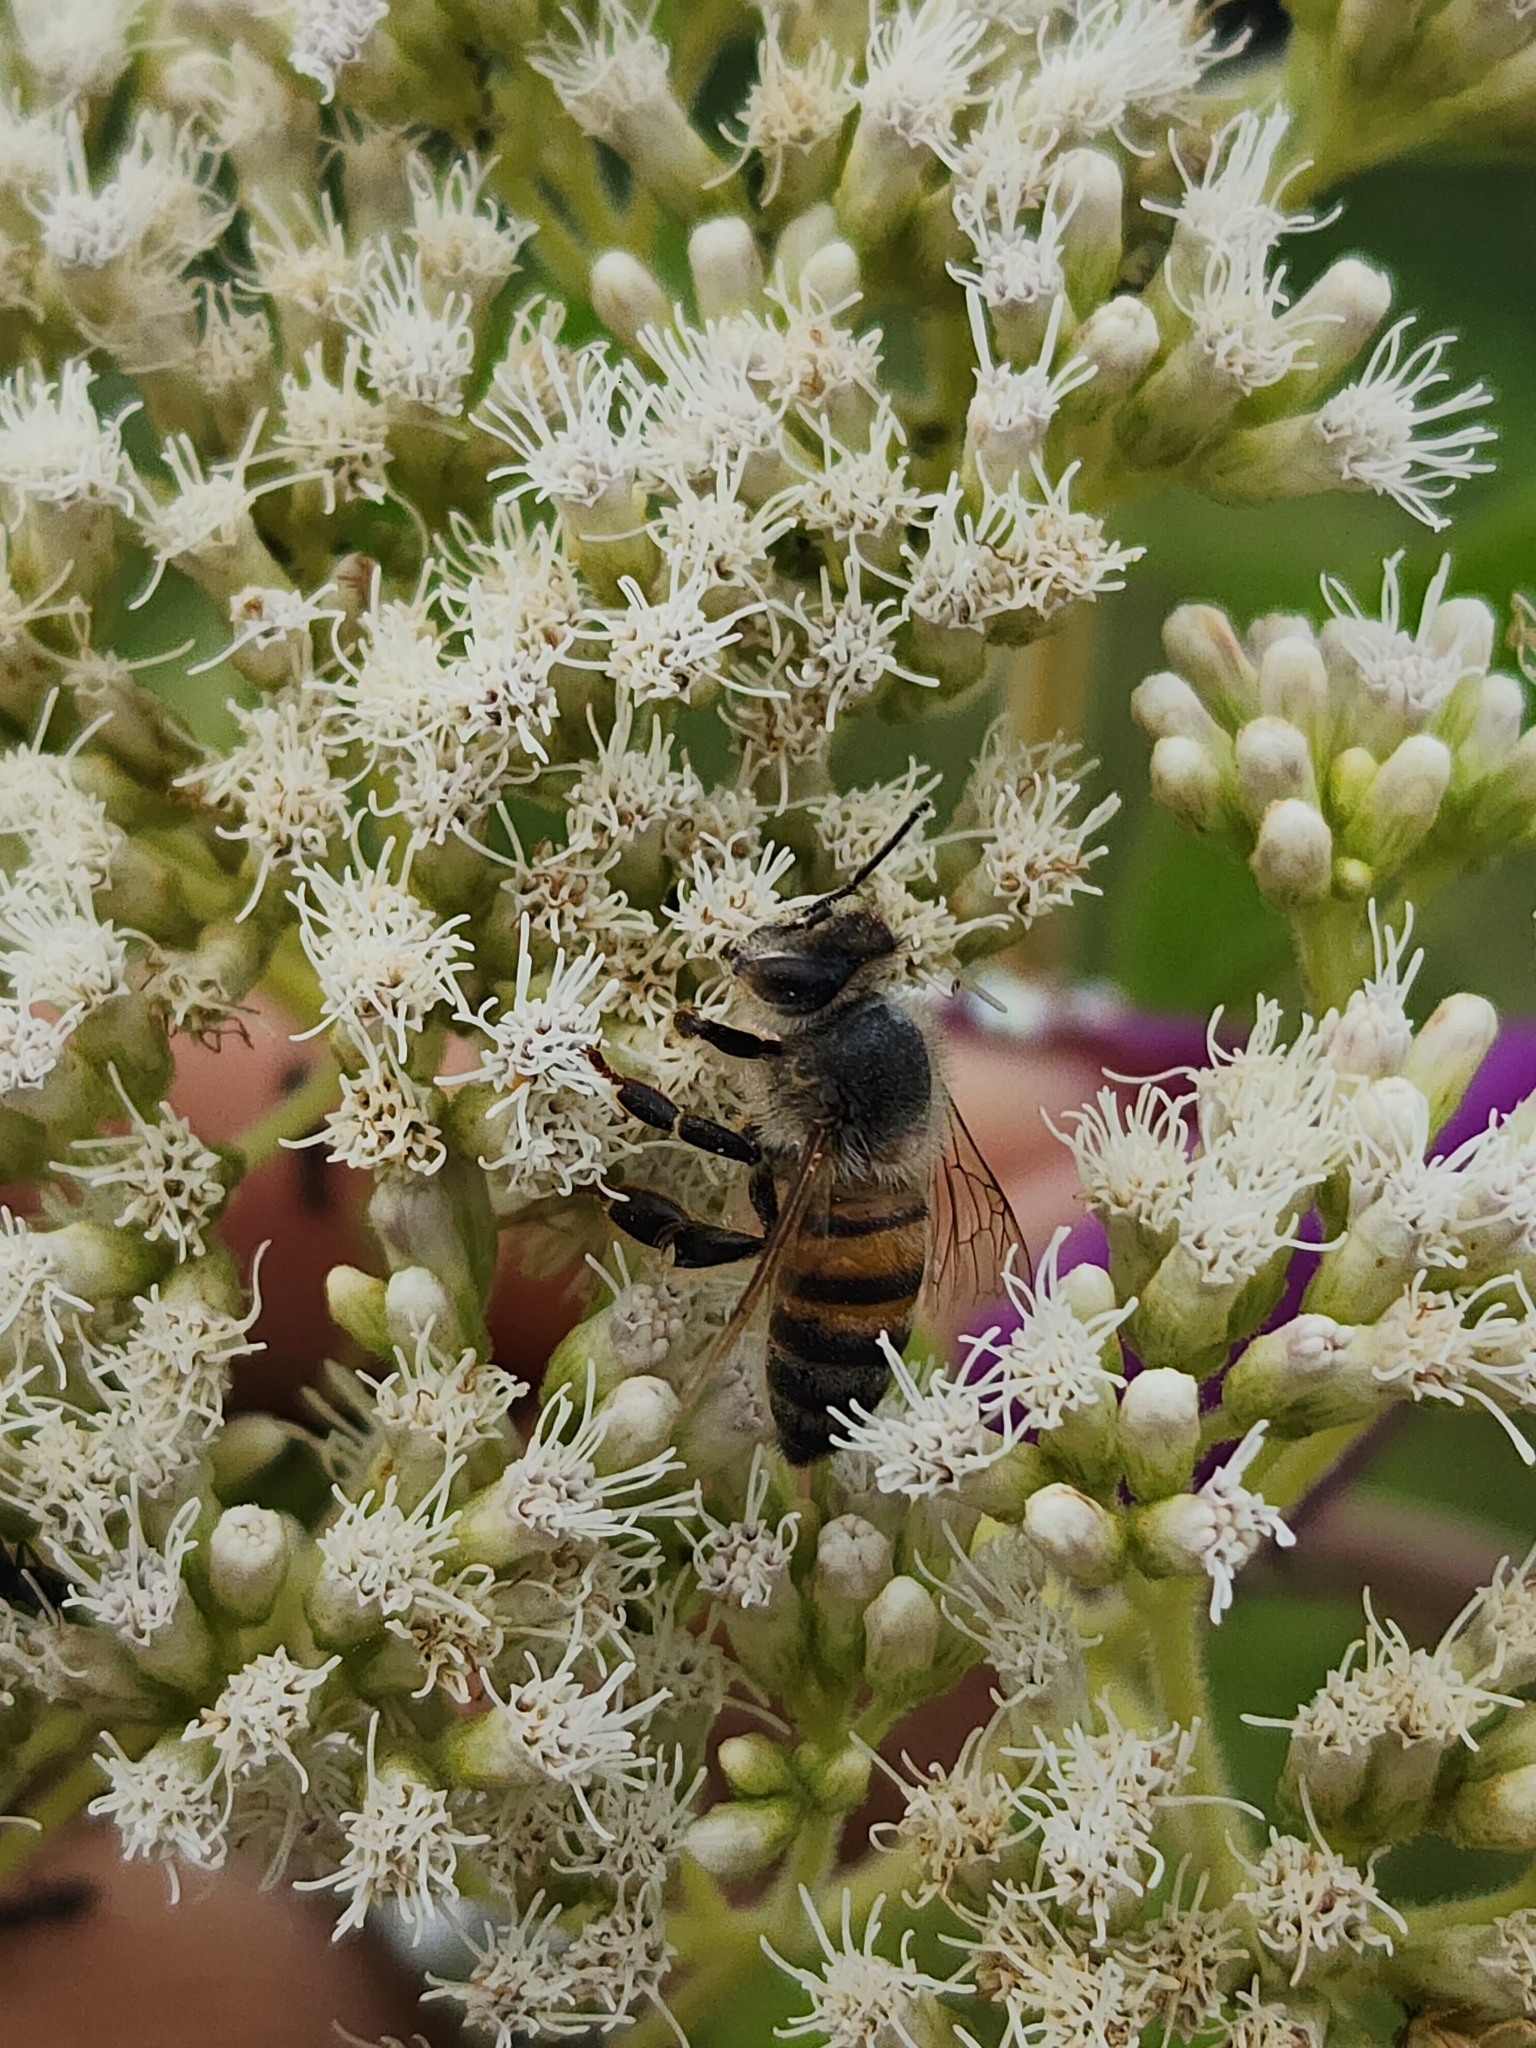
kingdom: Animalia
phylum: Arthropoda
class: Insecta
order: Hymenoptera
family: Apidae
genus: Apis
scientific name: Apis mellifera
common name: Honey bee
